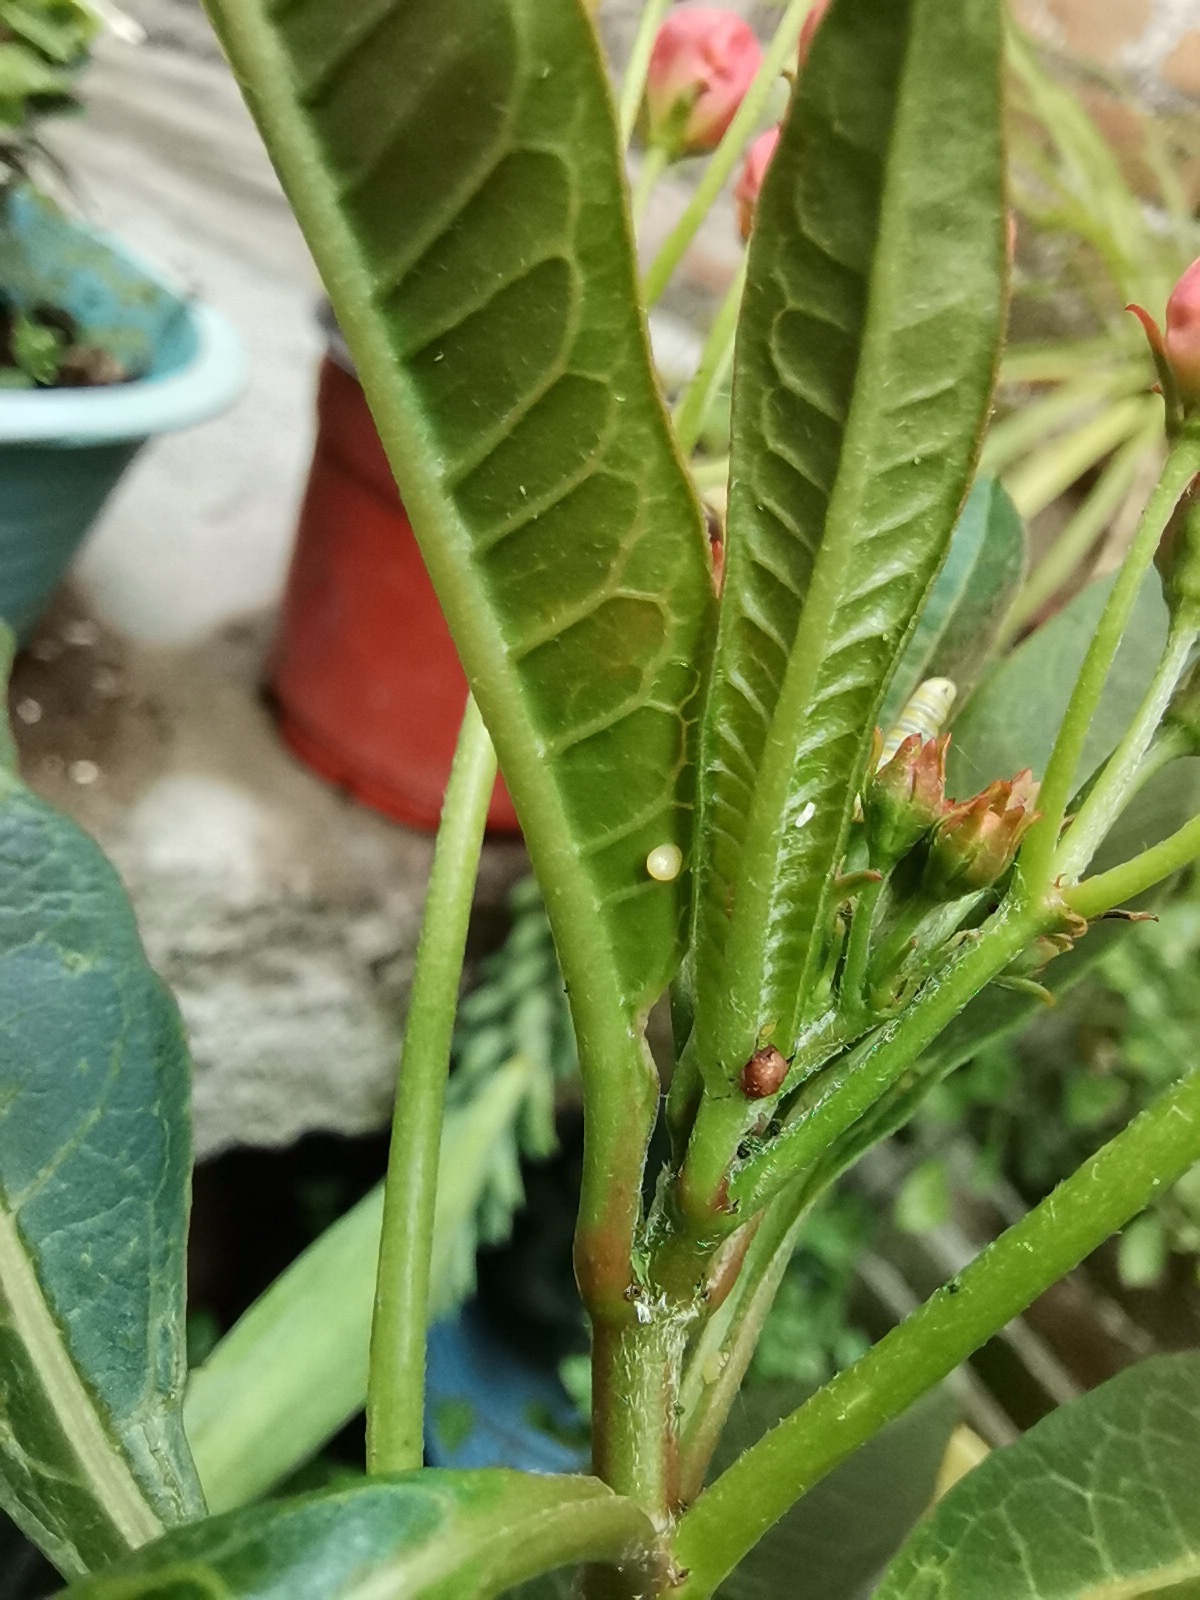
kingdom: Animalia
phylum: Arthropoda
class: Insecta
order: Lepidoptera
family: Nymphalidae
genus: Danaus
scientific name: Danaus plexippus
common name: Monarch
